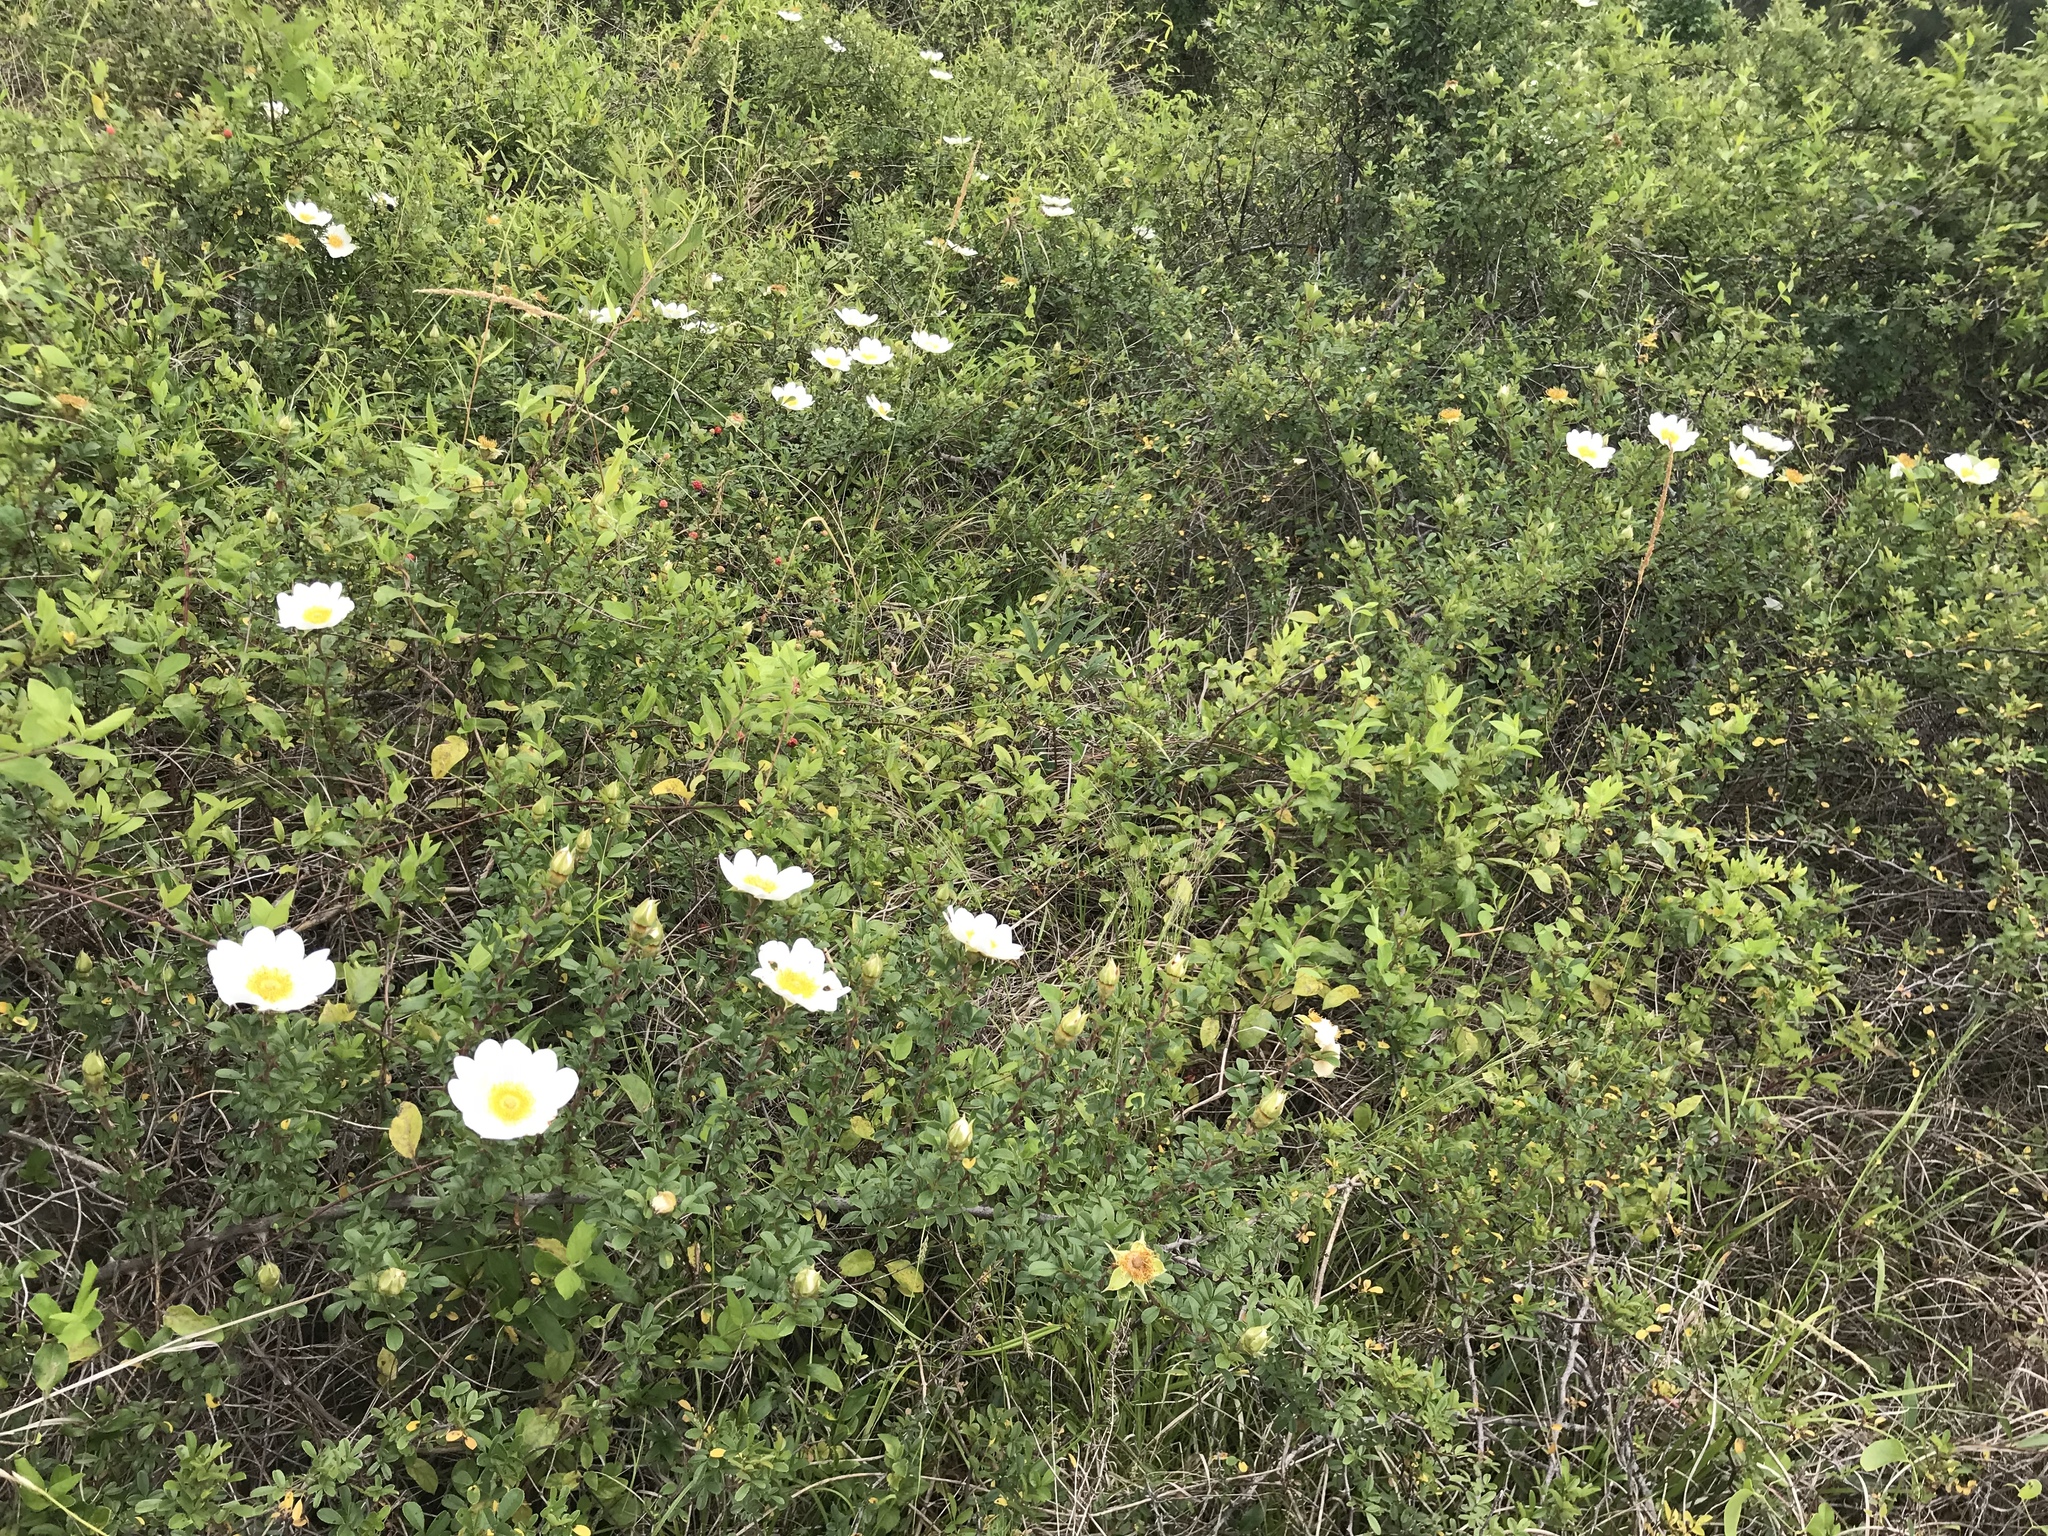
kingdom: Plantae
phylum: Tracheophyta
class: Magnoliopsida
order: Rosales
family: Rosaceae
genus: Rosa
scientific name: Rosa bracteata
